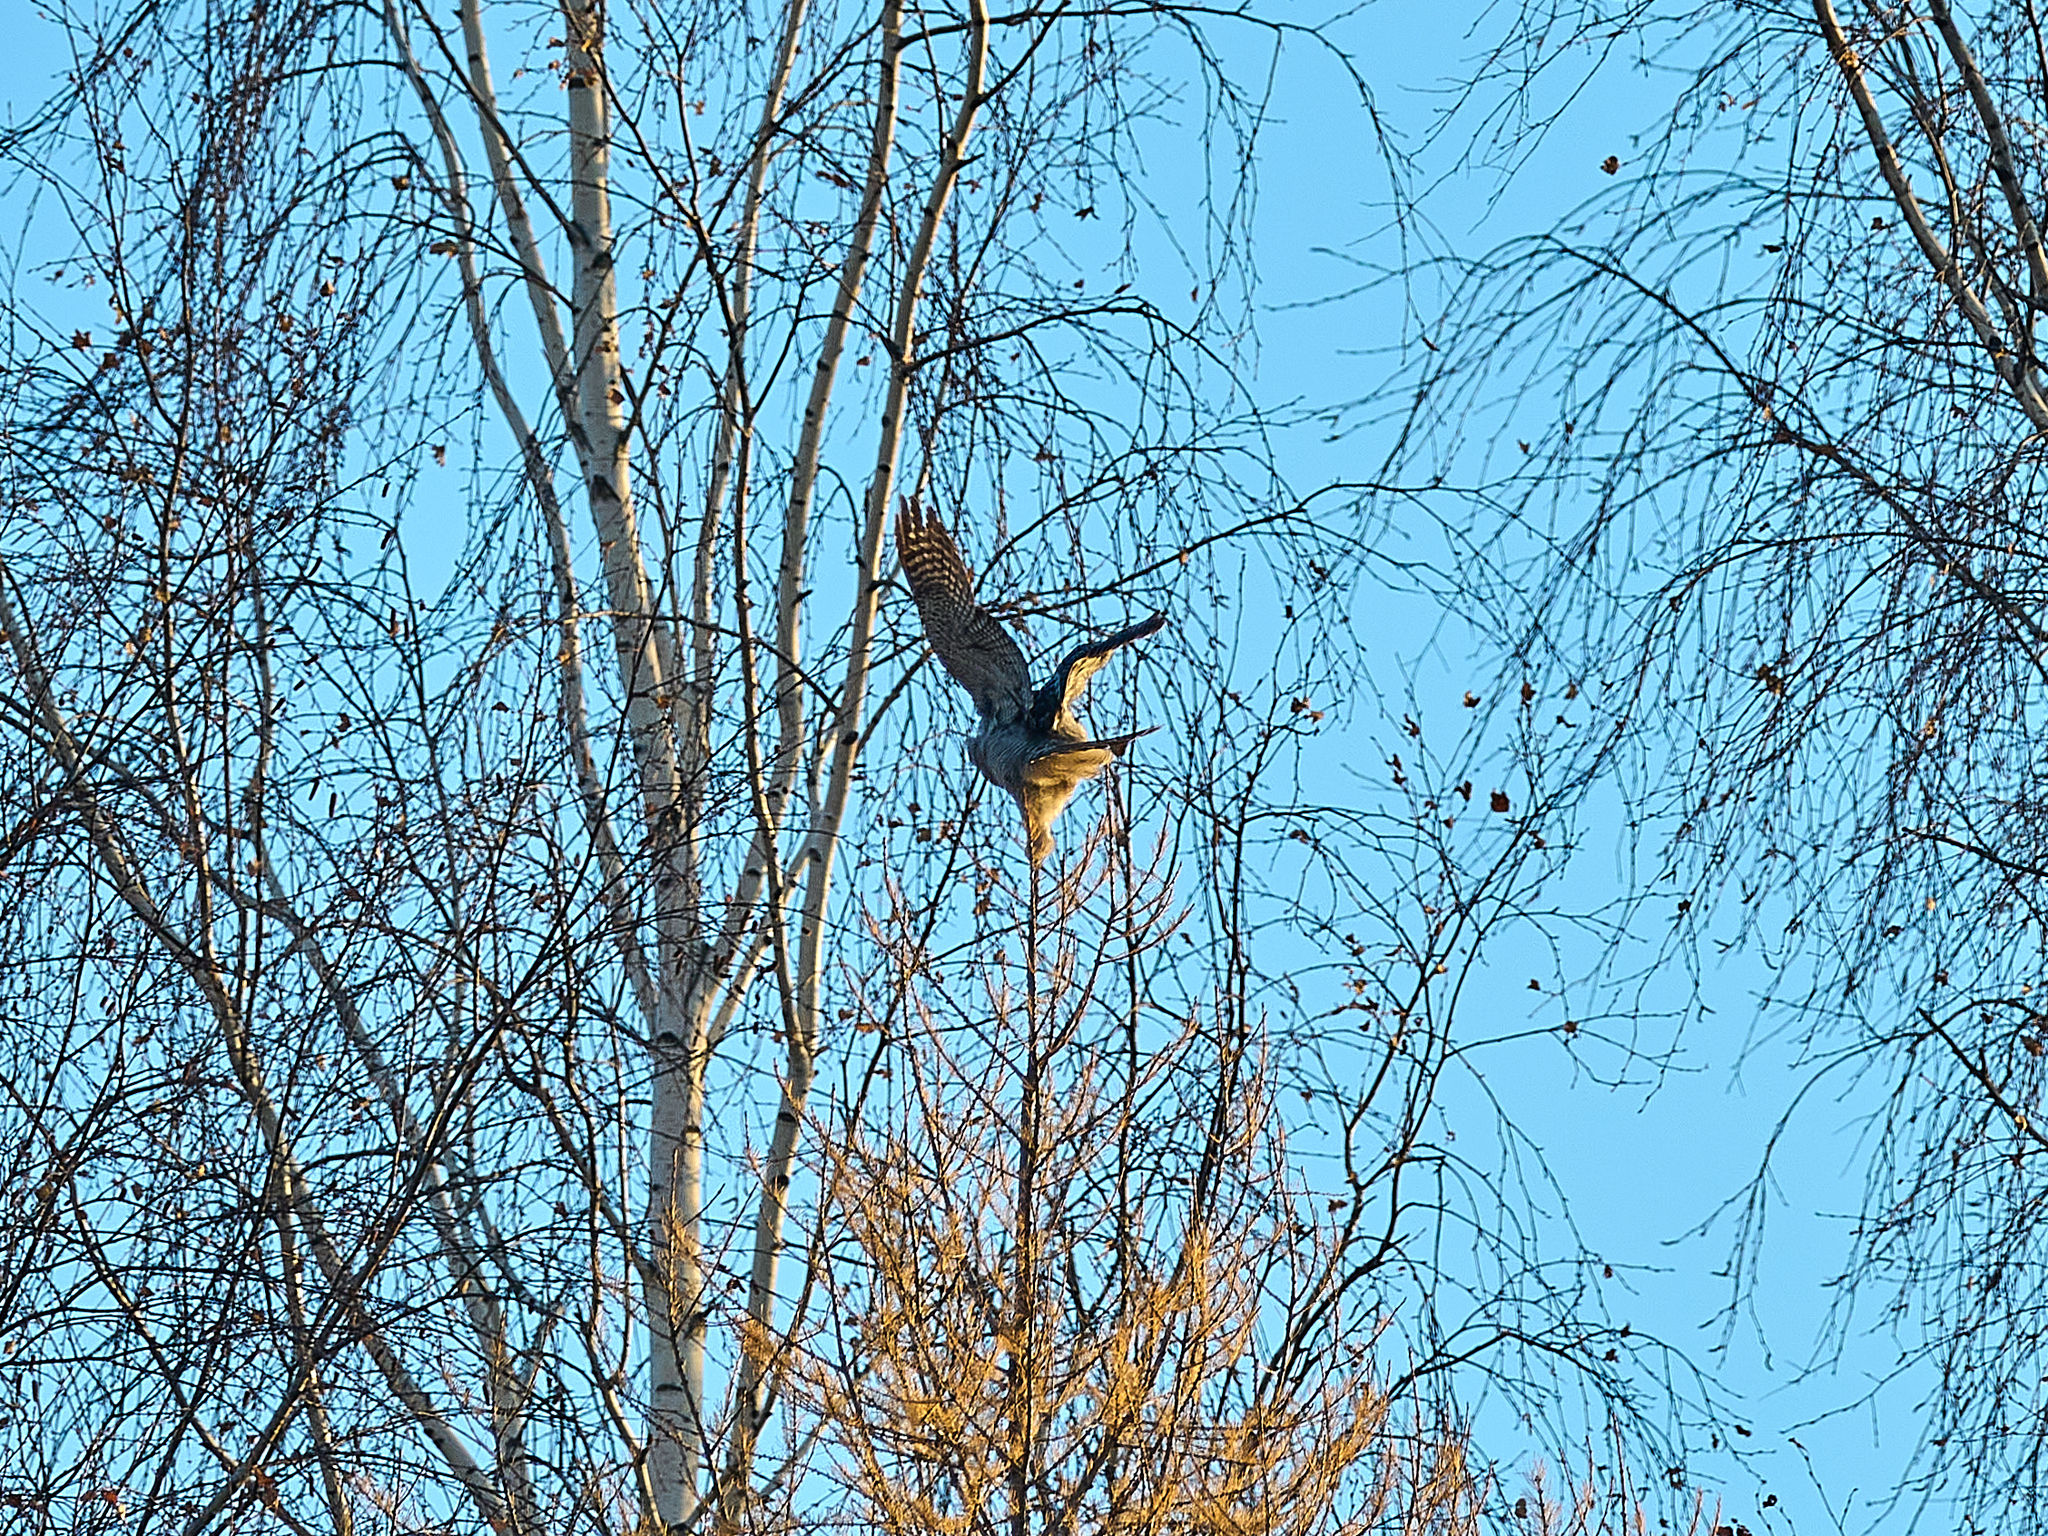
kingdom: Animalia
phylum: Chordata
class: Aves
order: Strigiformes
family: Strigidae
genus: Surnia
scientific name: Surnia ulula
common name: Northern hawk-owl
